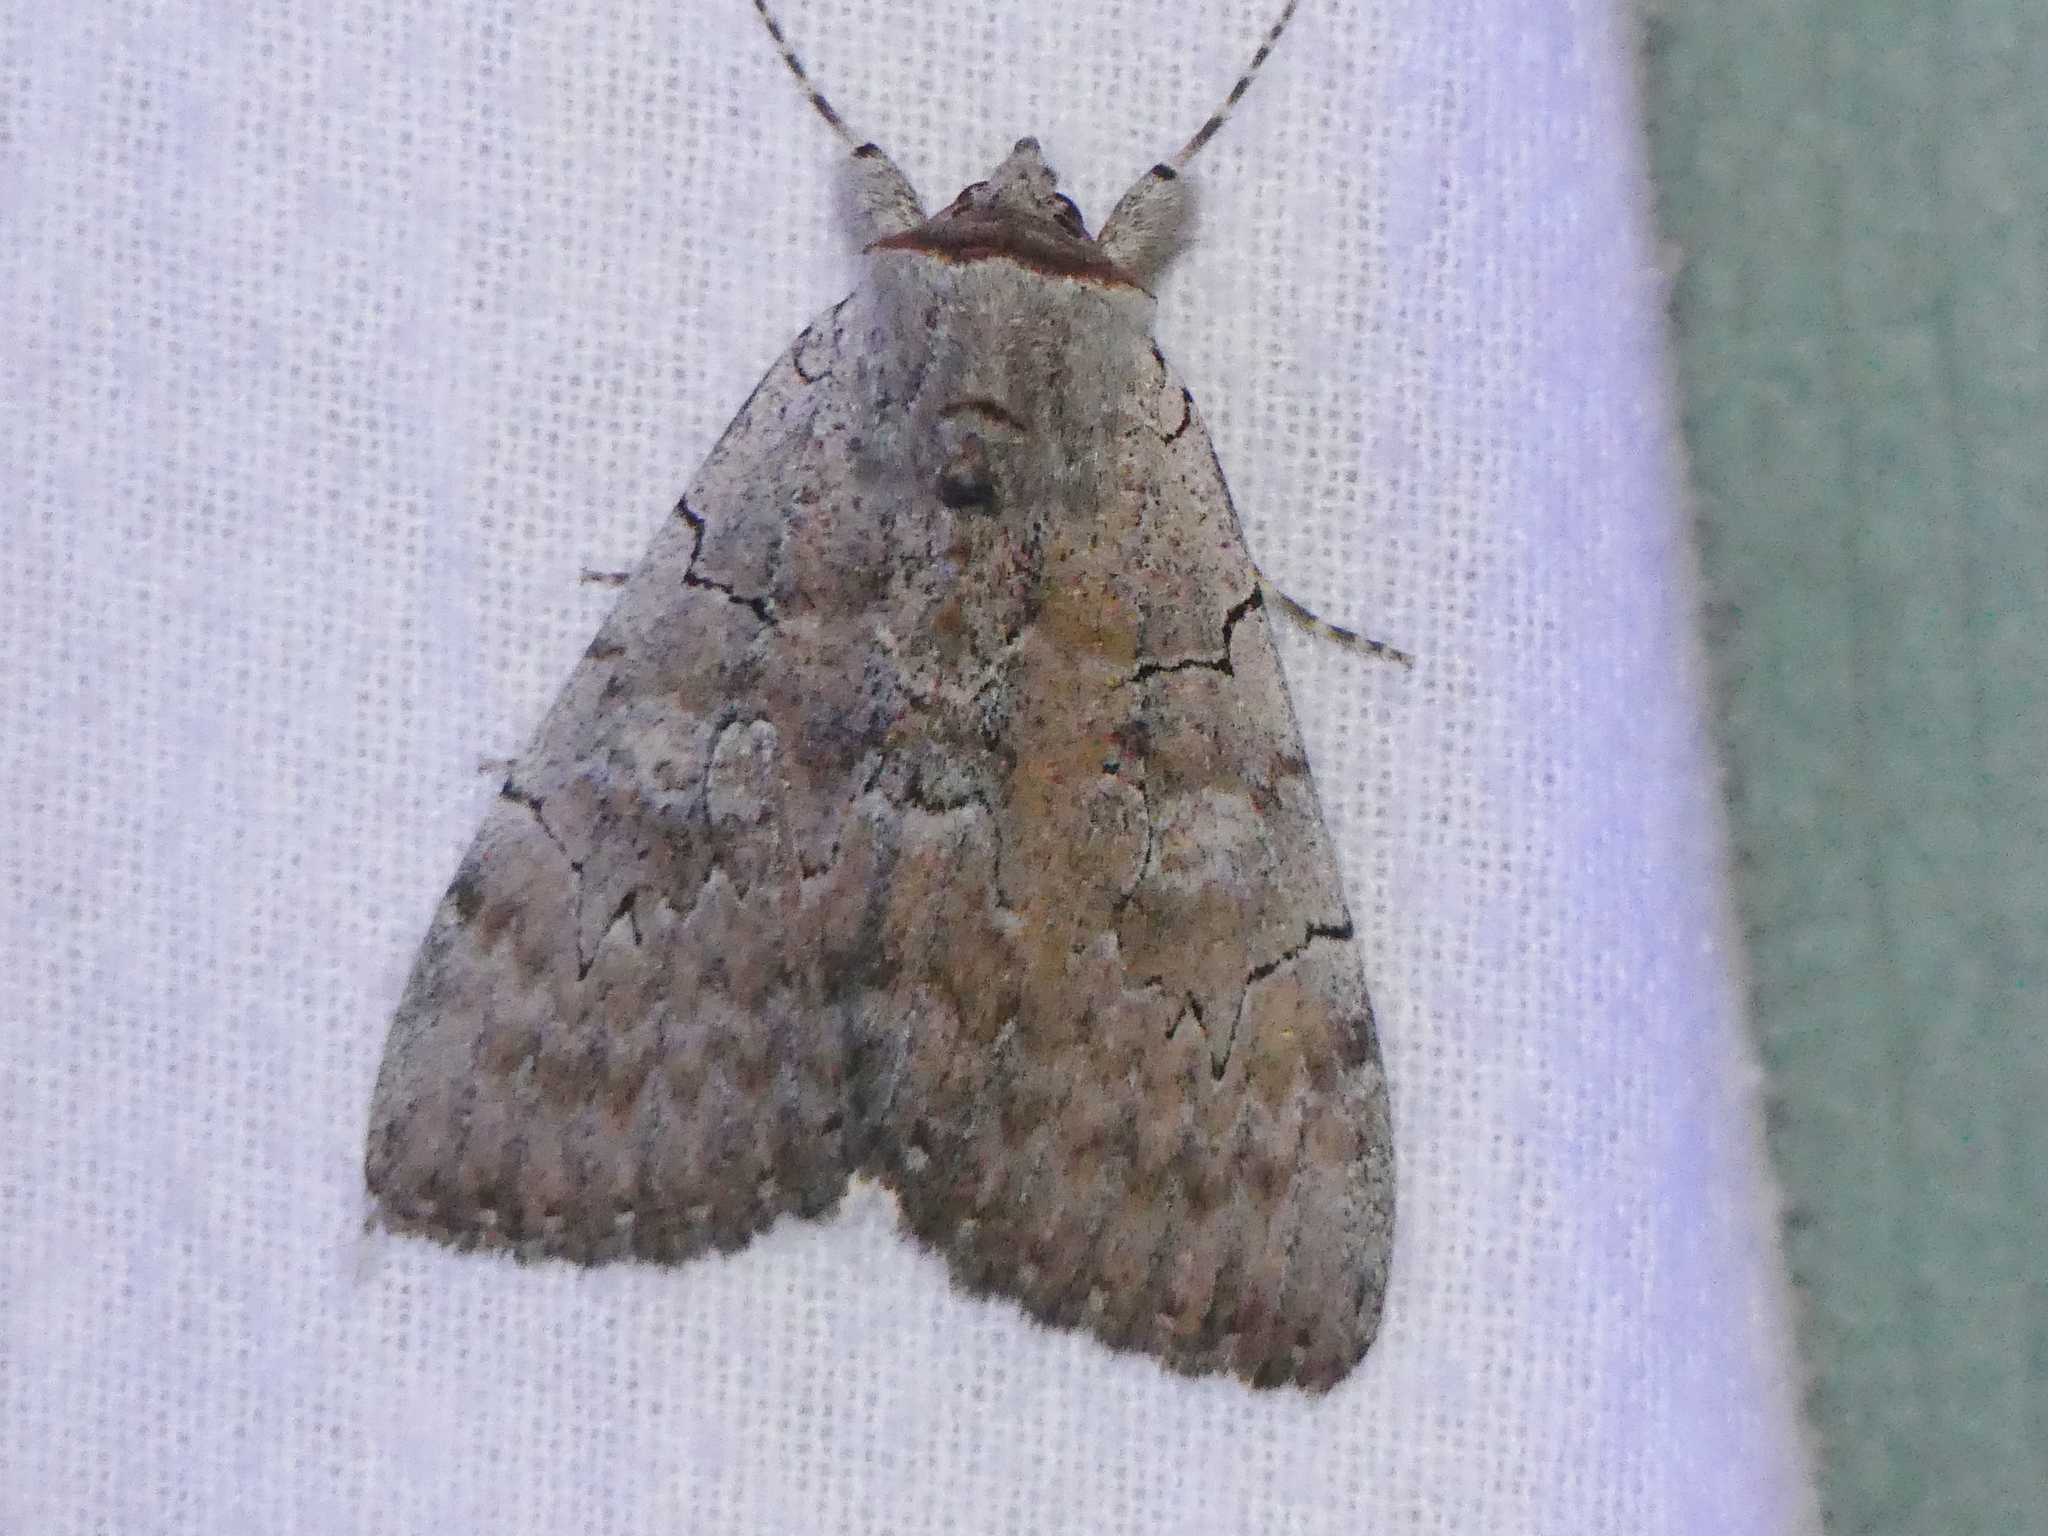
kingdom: Animalia
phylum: Arthropoda
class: Insecta
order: Lepidoptera
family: Erebidae
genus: Catocala
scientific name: Catocala concumbens
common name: Pink underwing
